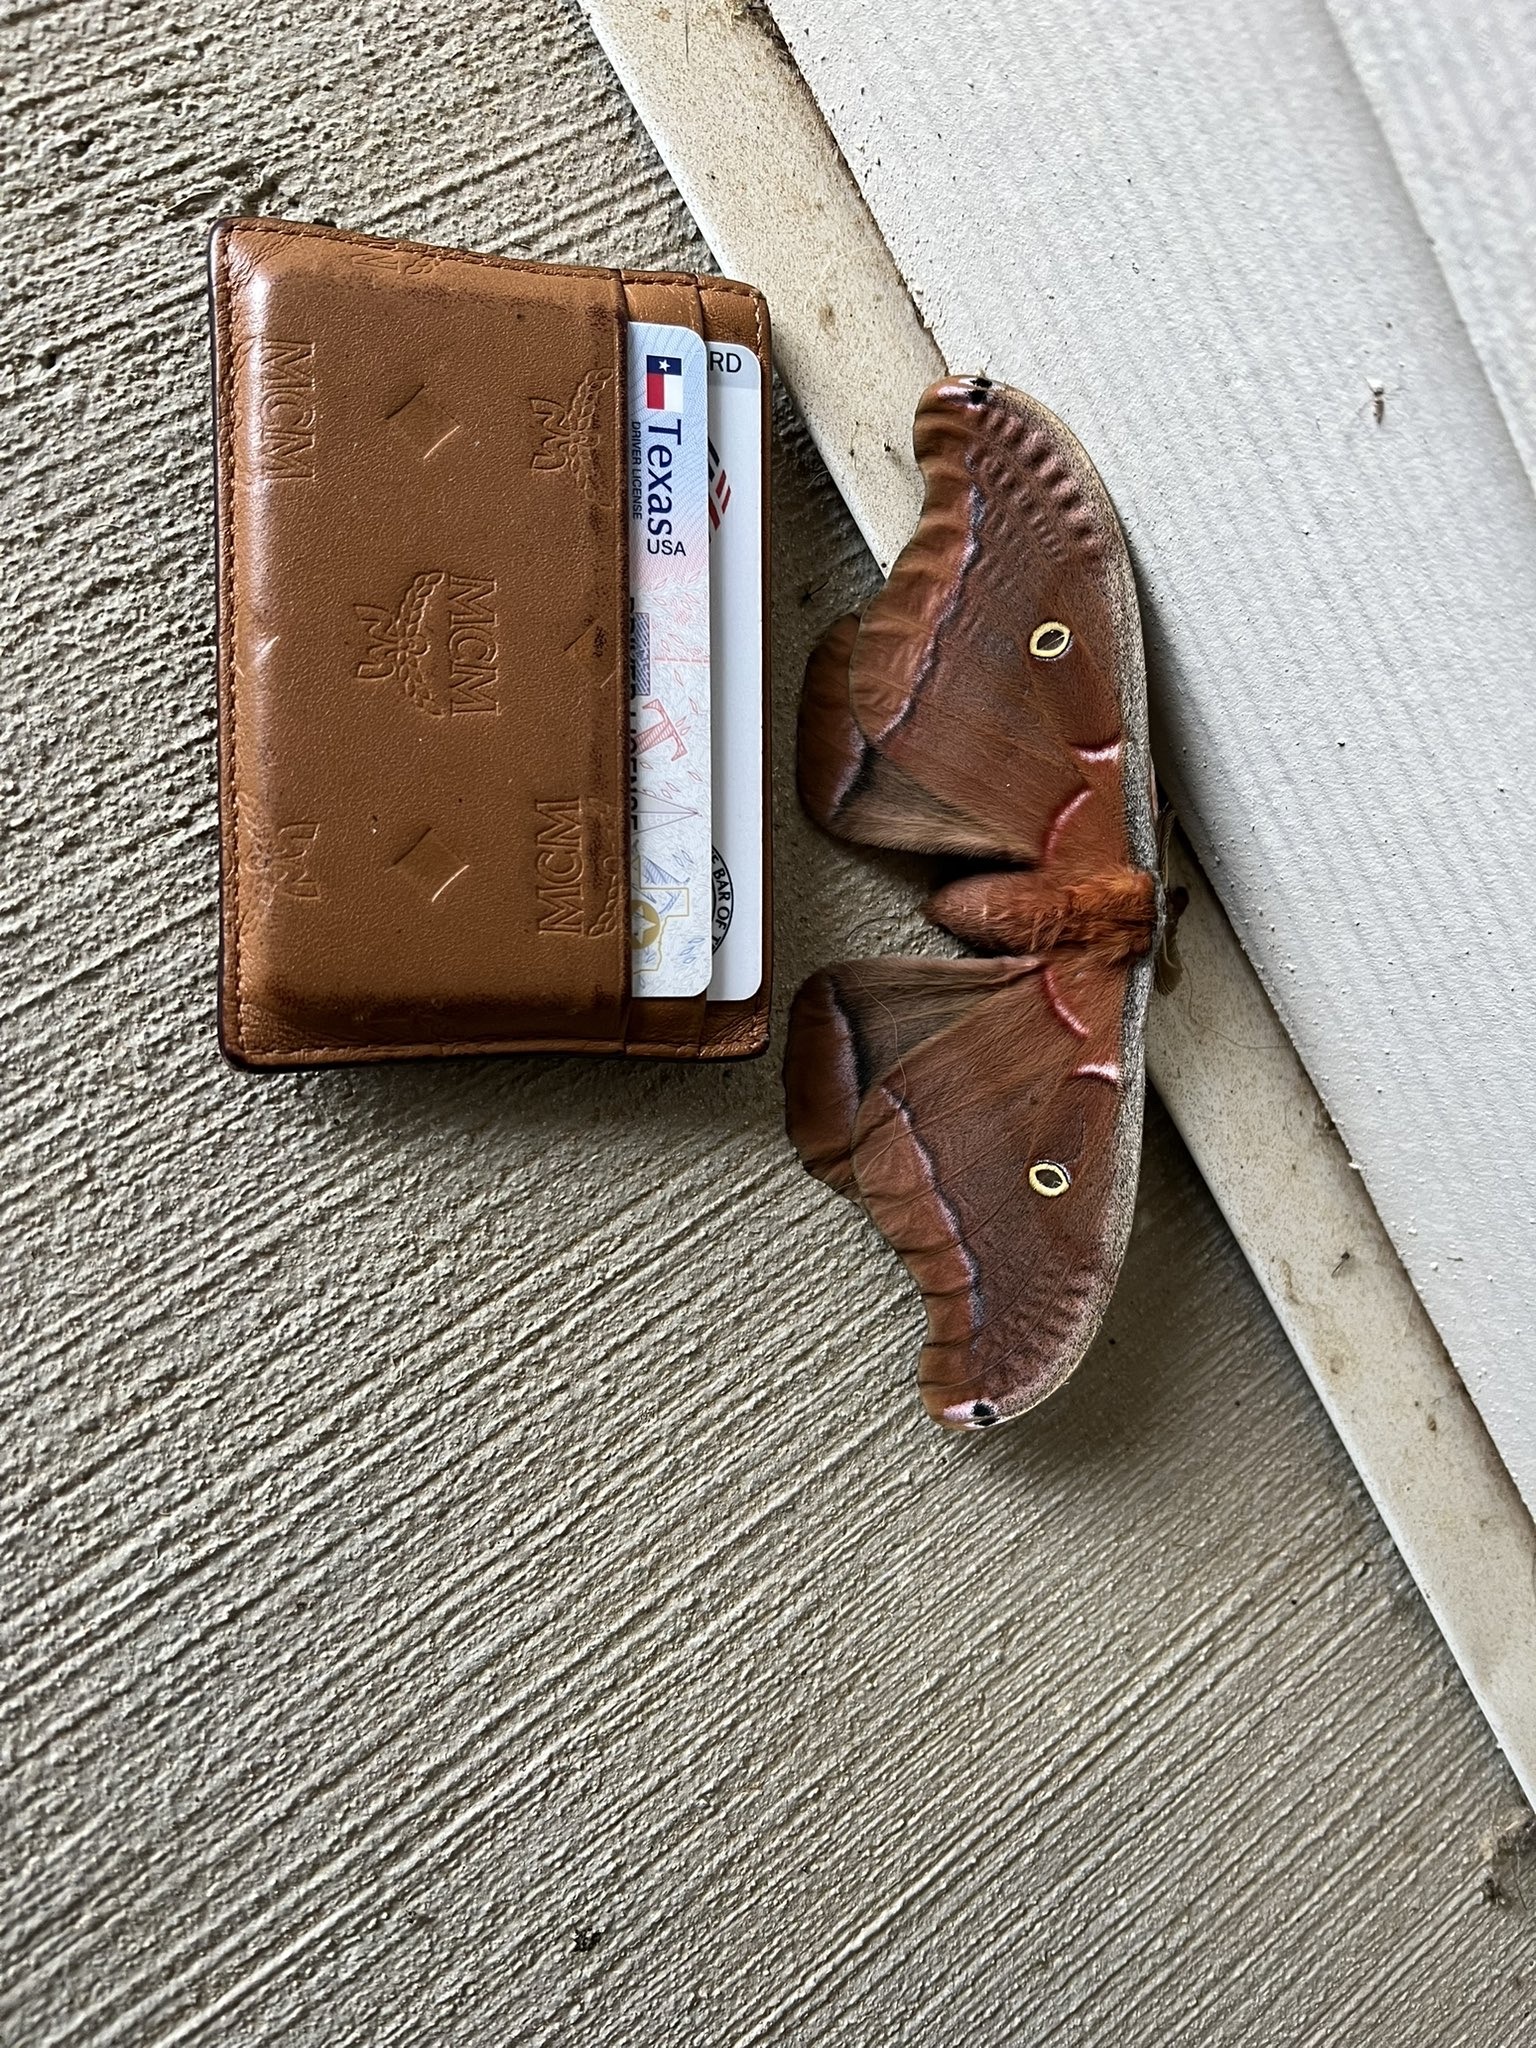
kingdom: Animalia
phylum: Arthropoda
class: Insecta
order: Lepidoptera
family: Saturniidae
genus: Antheraea
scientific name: Antheraea polyphemus
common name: Polyphemus moth
